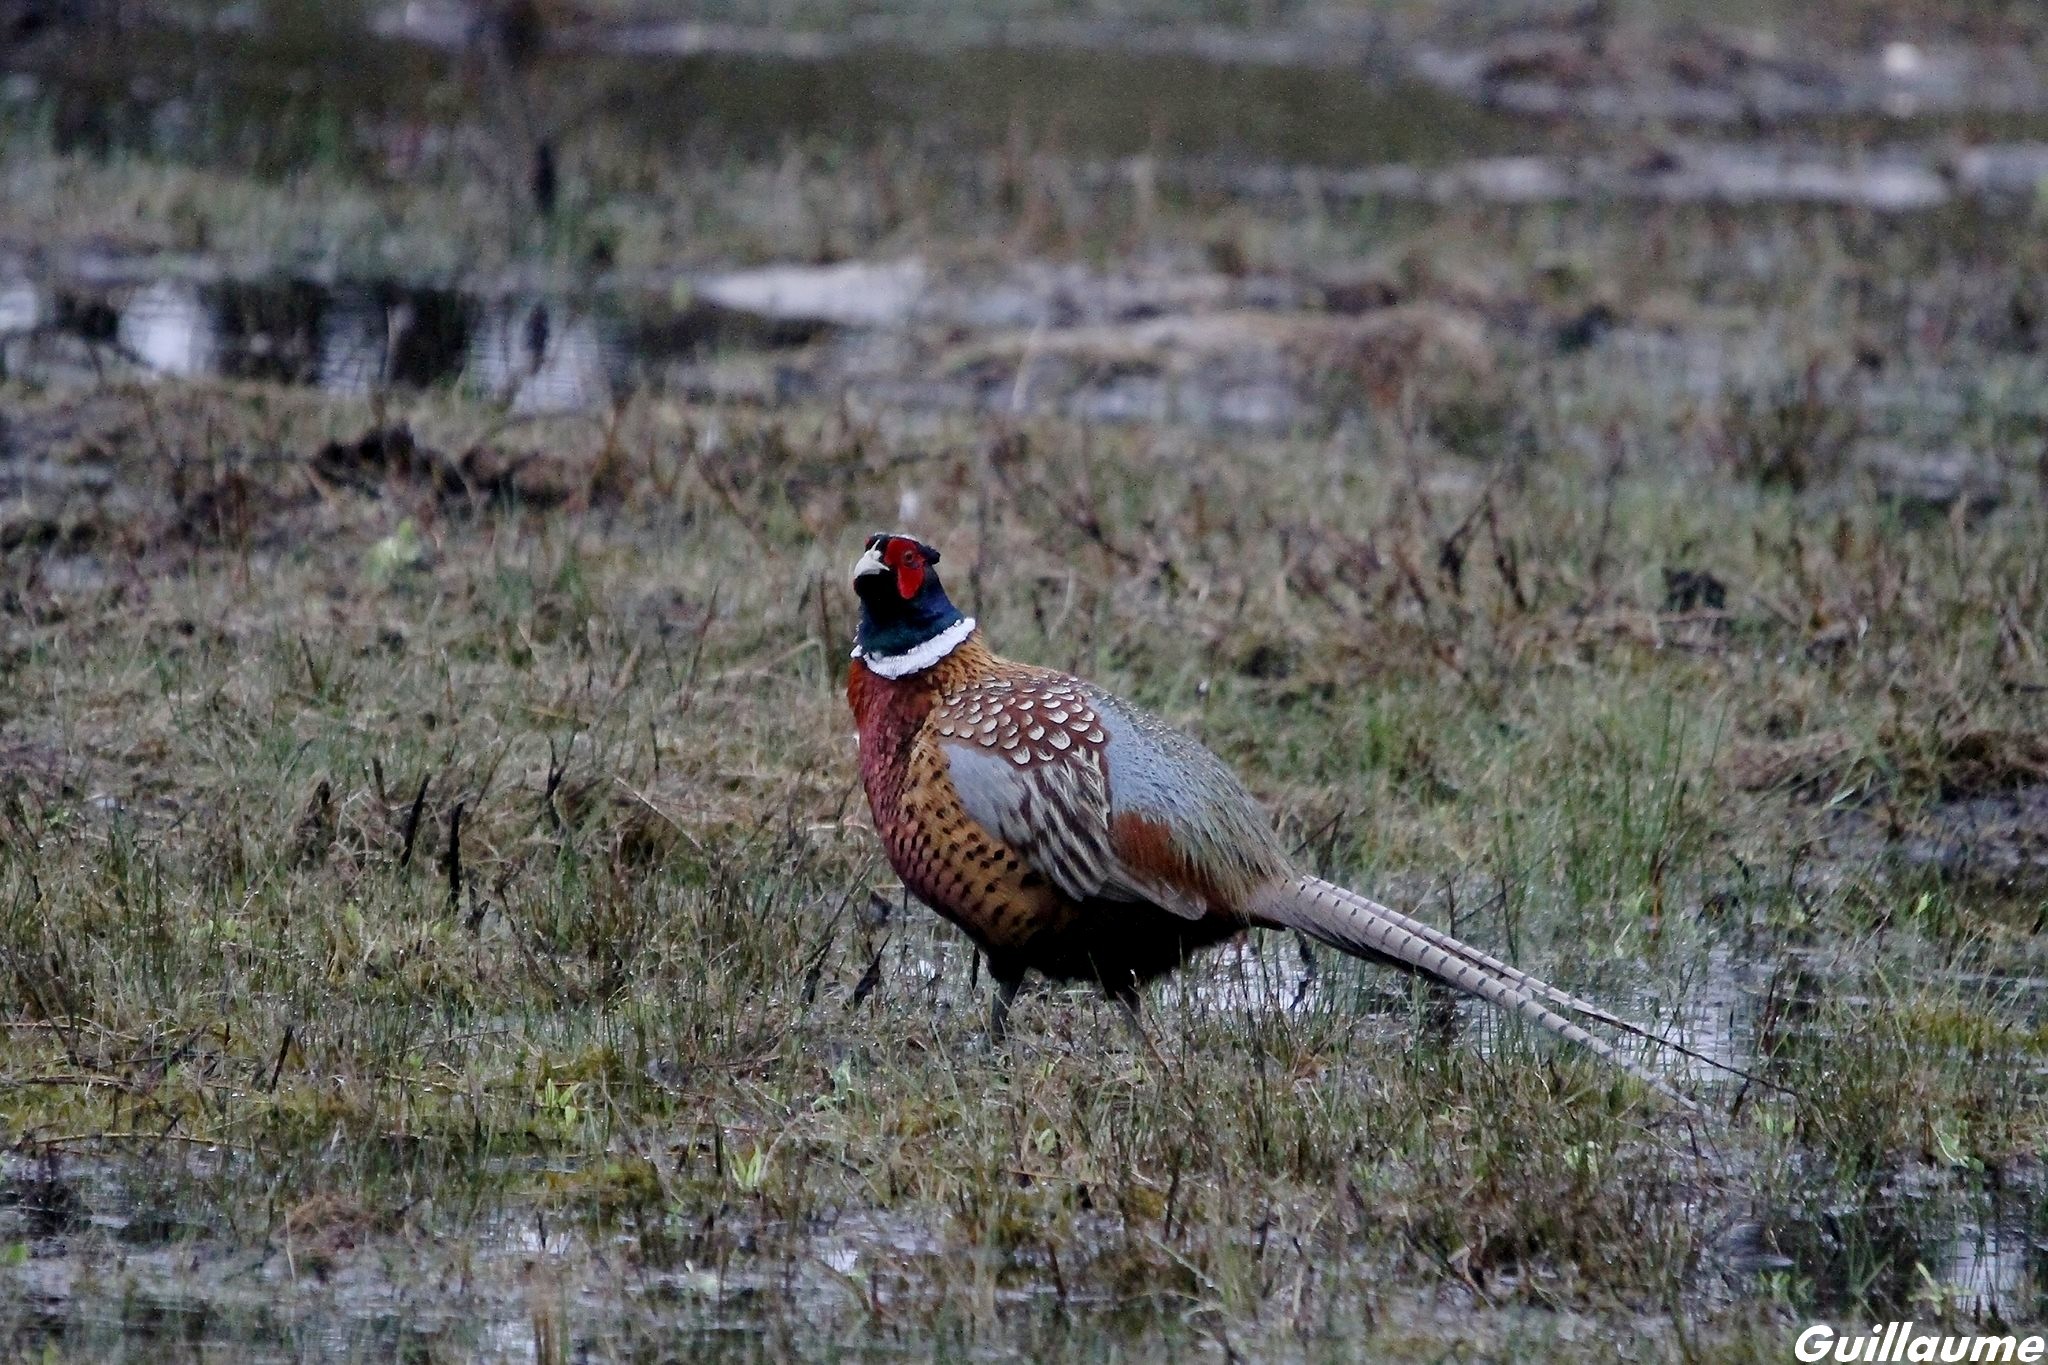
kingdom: Animalia
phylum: Chordata
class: Aves
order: Galliformes
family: Phasianidae
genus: Phasianus
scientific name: Phasianus colchicus
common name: Common pheasant
